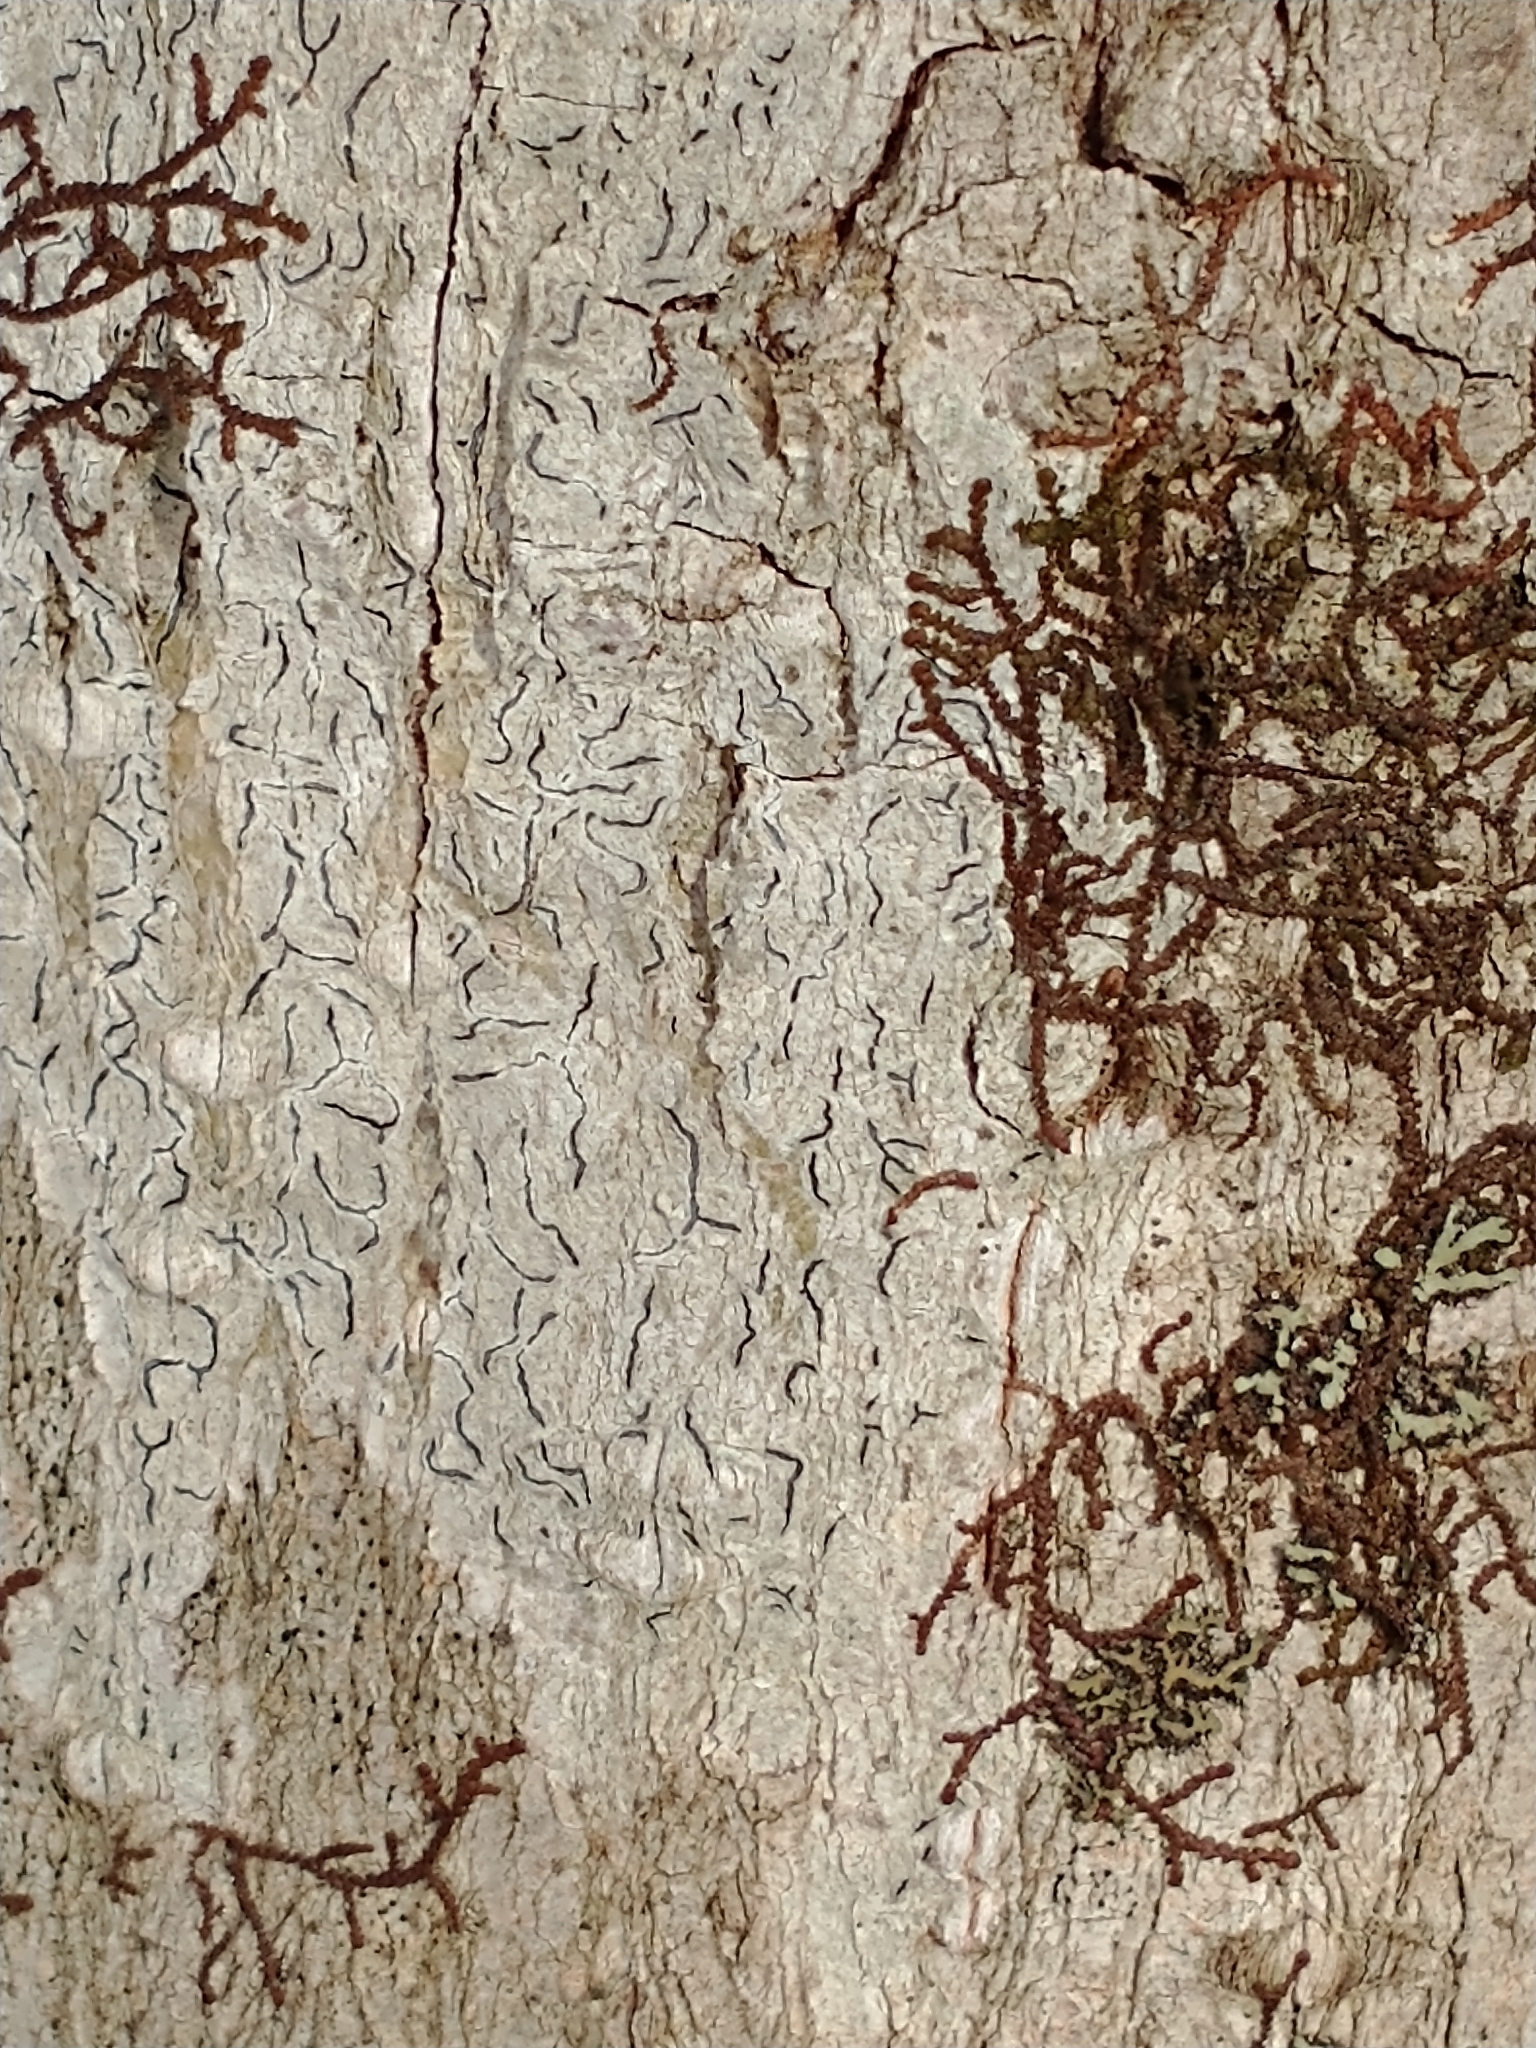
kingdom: Fungi
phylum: Ascomycota
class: Lecanoromycetes
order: Ostropales
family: Graphidaceae
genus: Graphis
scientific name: Graphis scripta
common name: Script lichen
